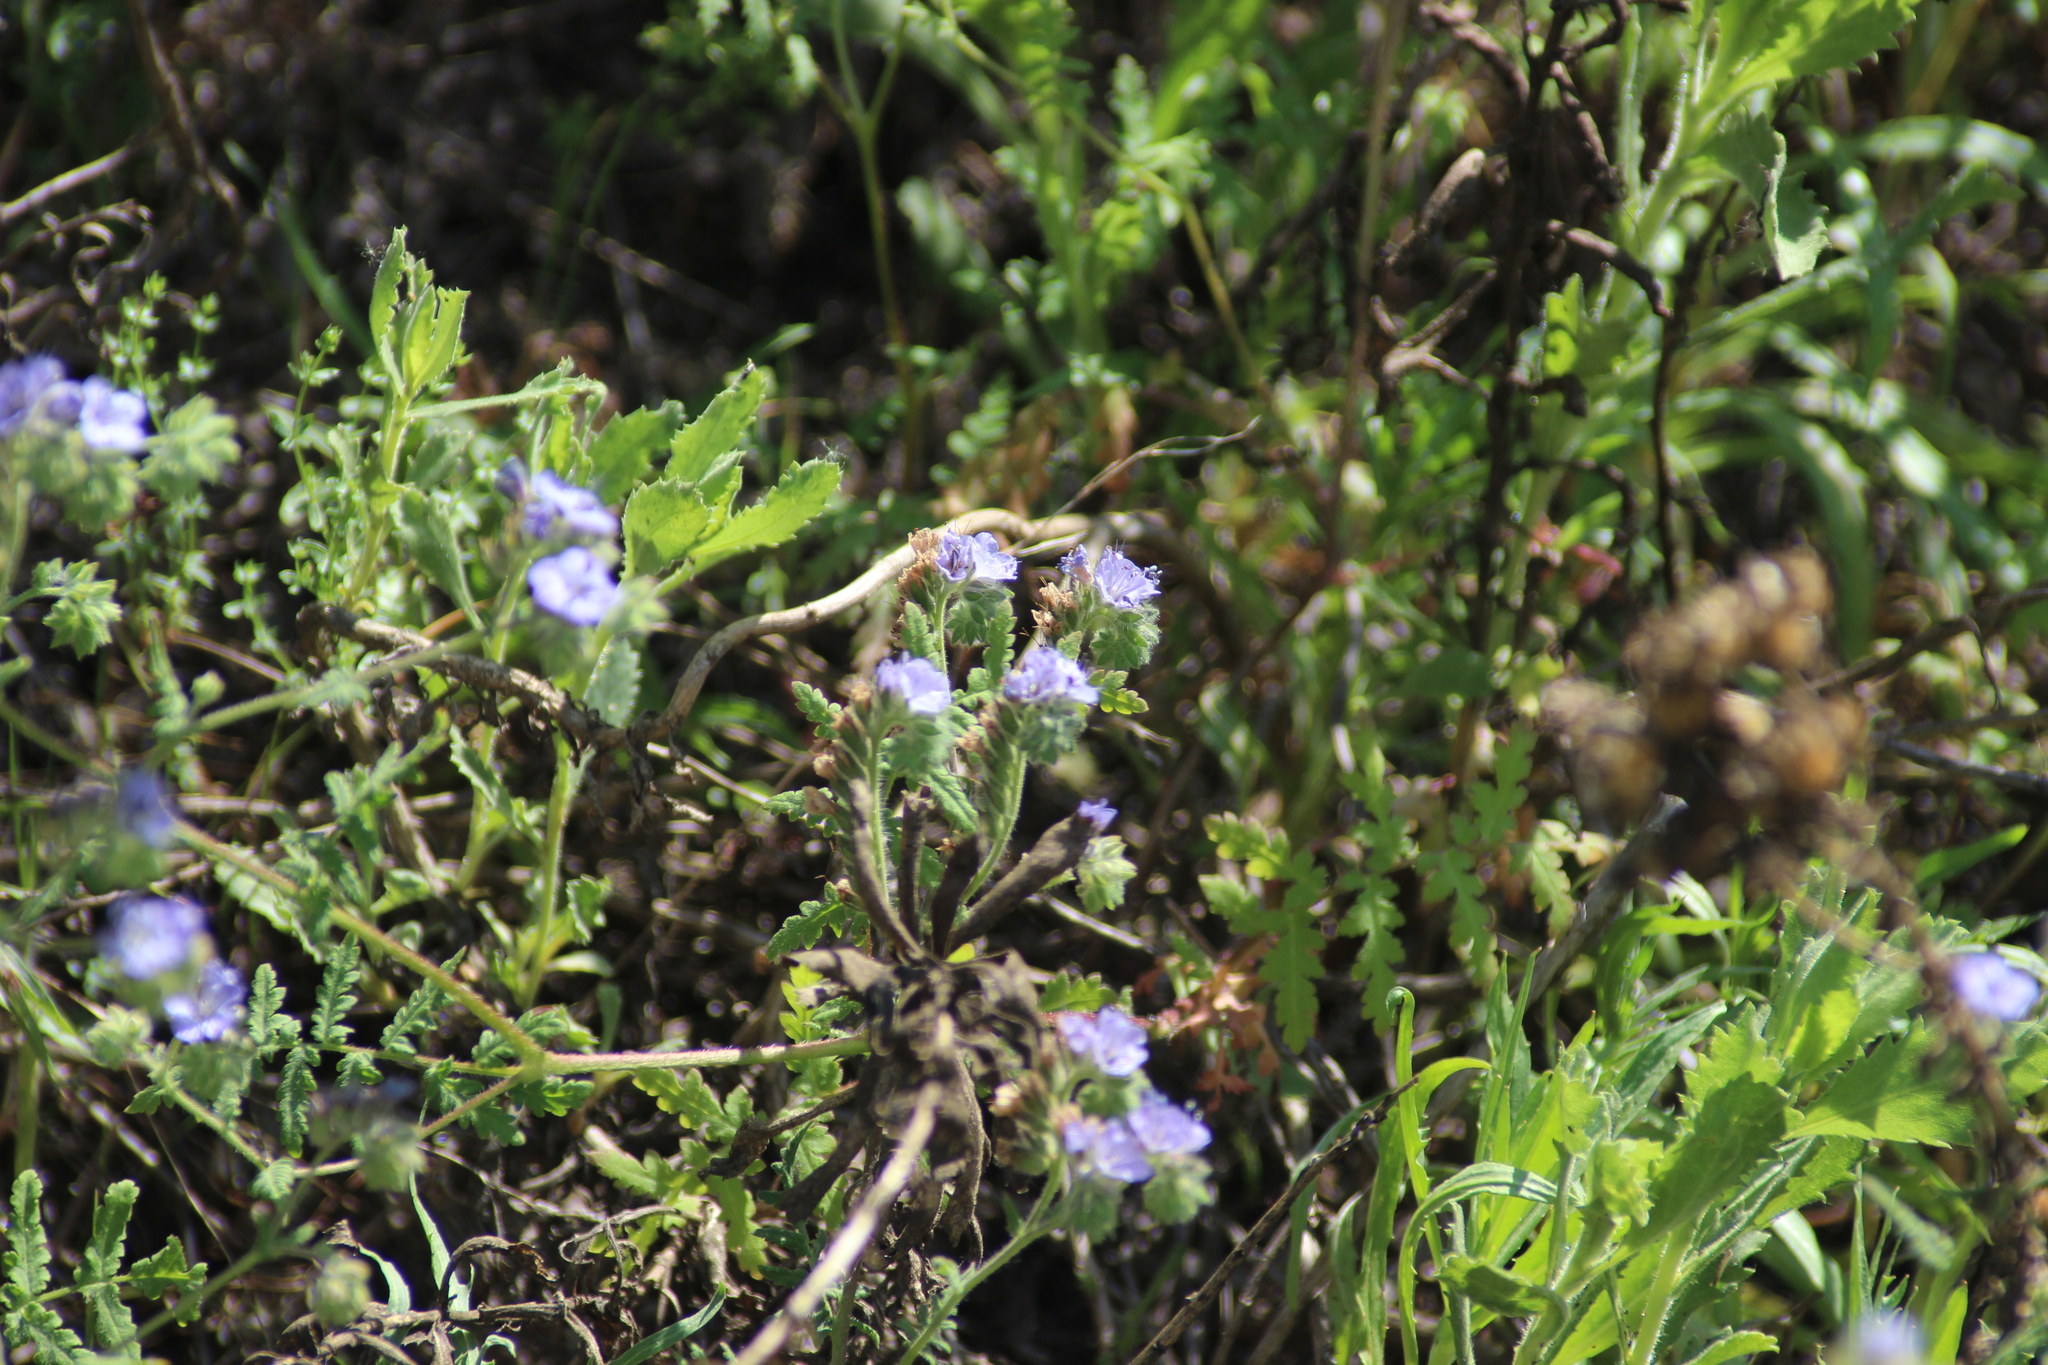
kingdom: Plantae
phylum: Tracheophyta
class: Magnoliopsida
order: Boraginales
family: Hydrophyllaceae
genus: Phacelia
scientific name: Phacelia distans
